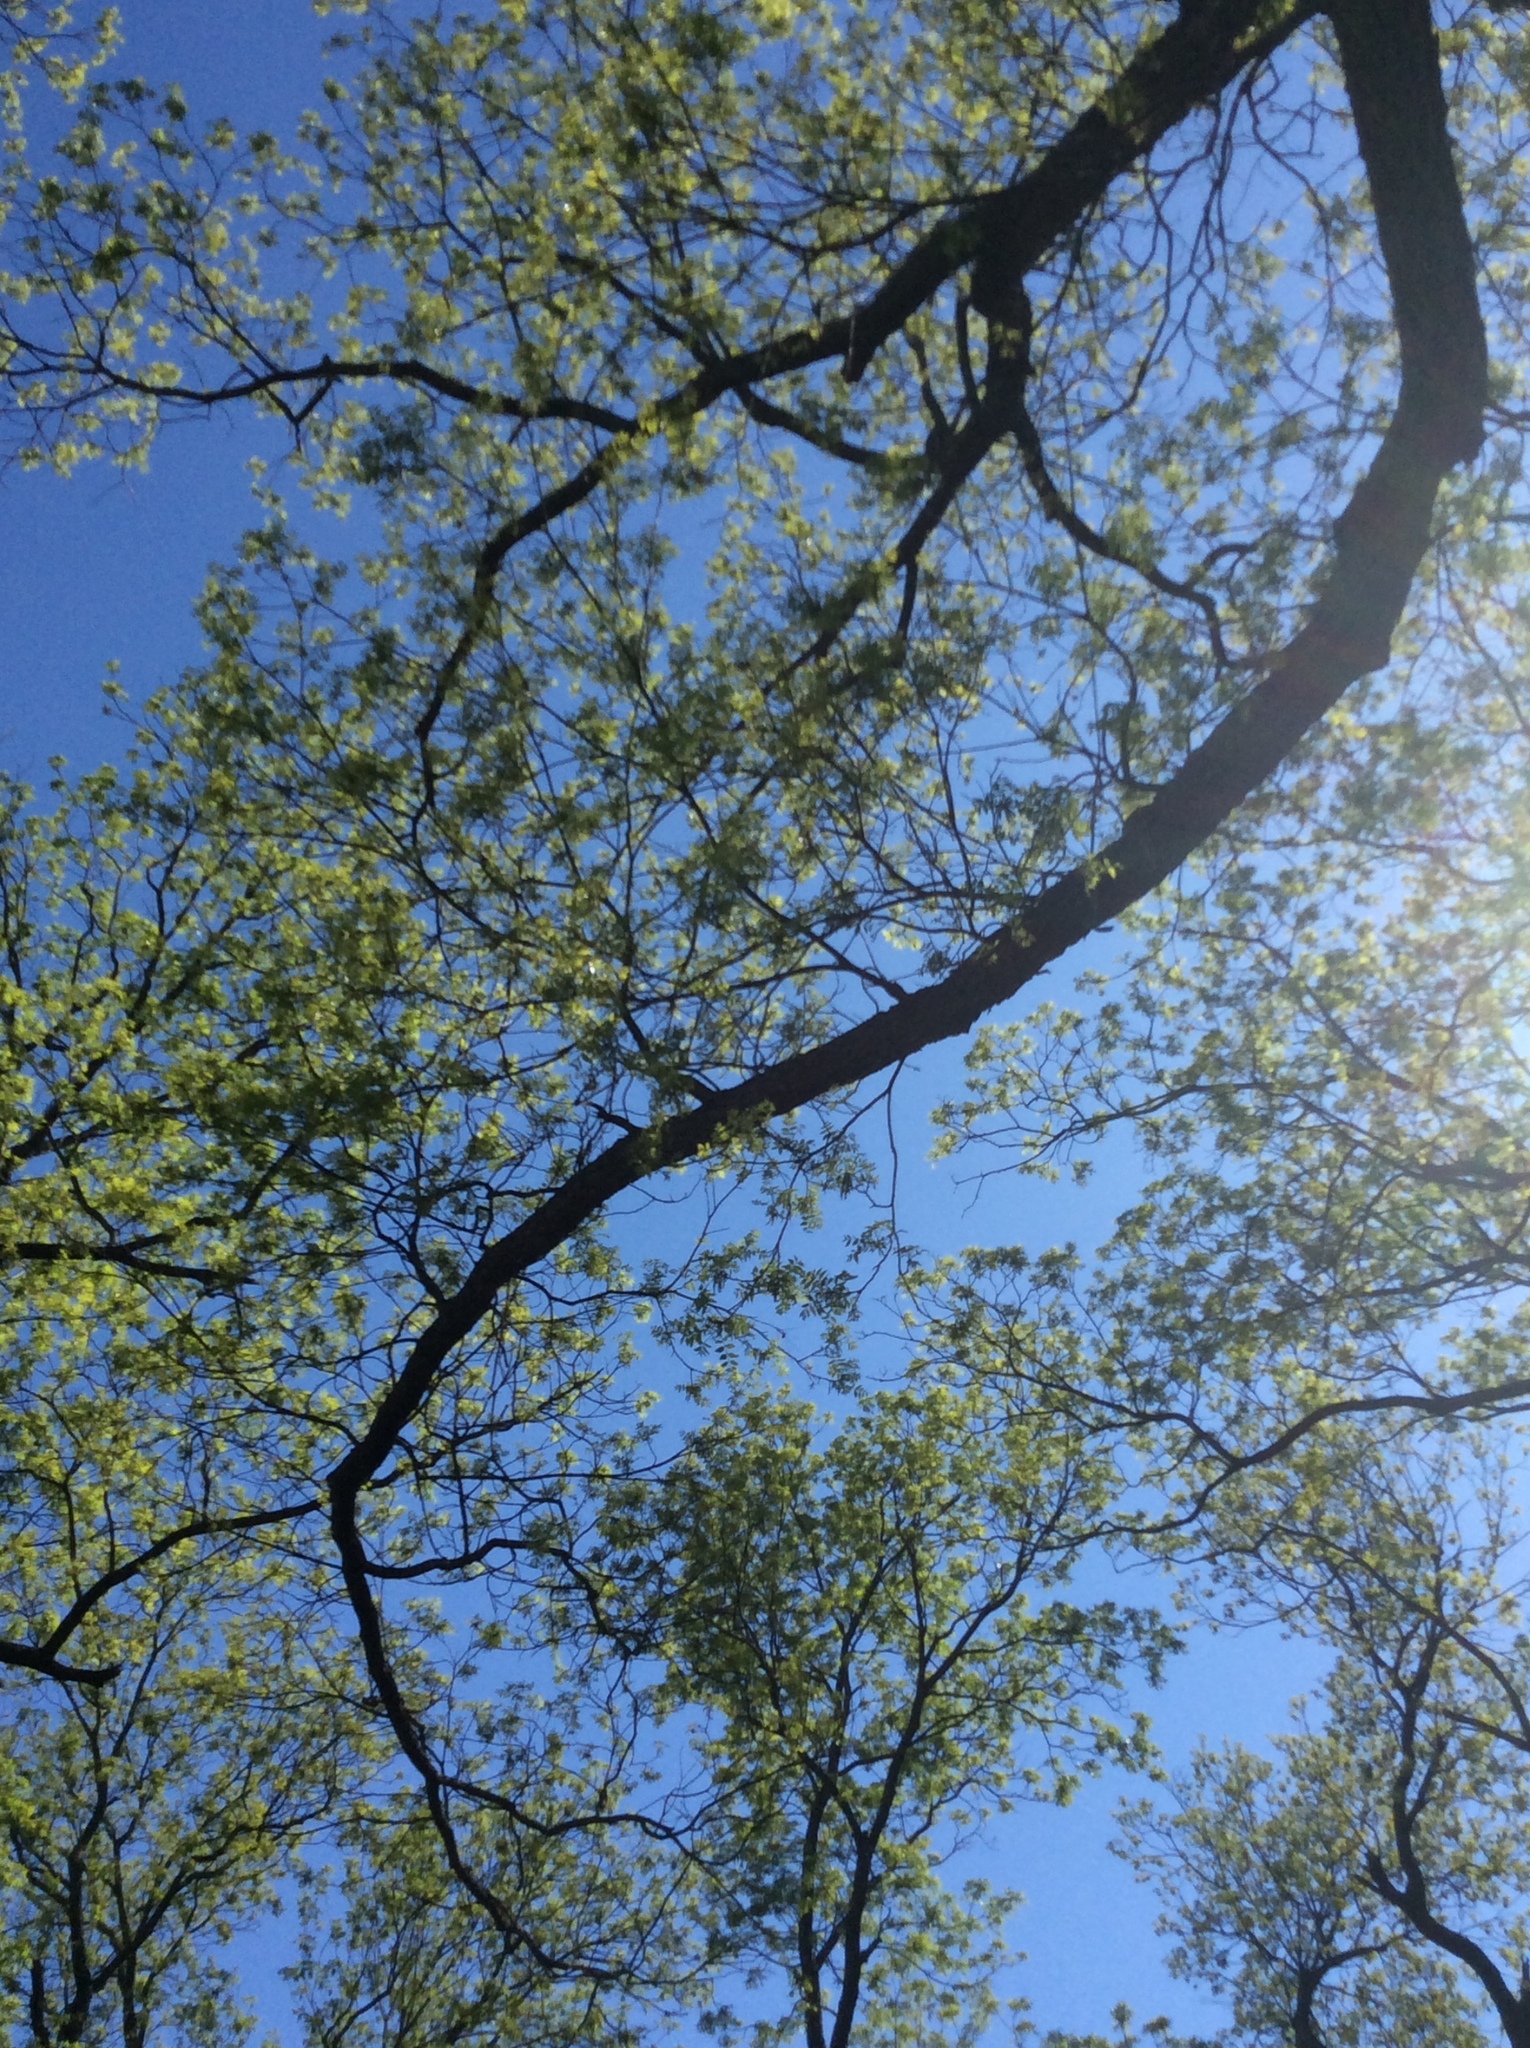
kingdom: Plantae
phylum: Tracheophyta
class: Magnoliopsida
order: Fagales
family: Juglandaceae
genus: Carya
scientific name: Carya illinoinensis
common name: Pecan
